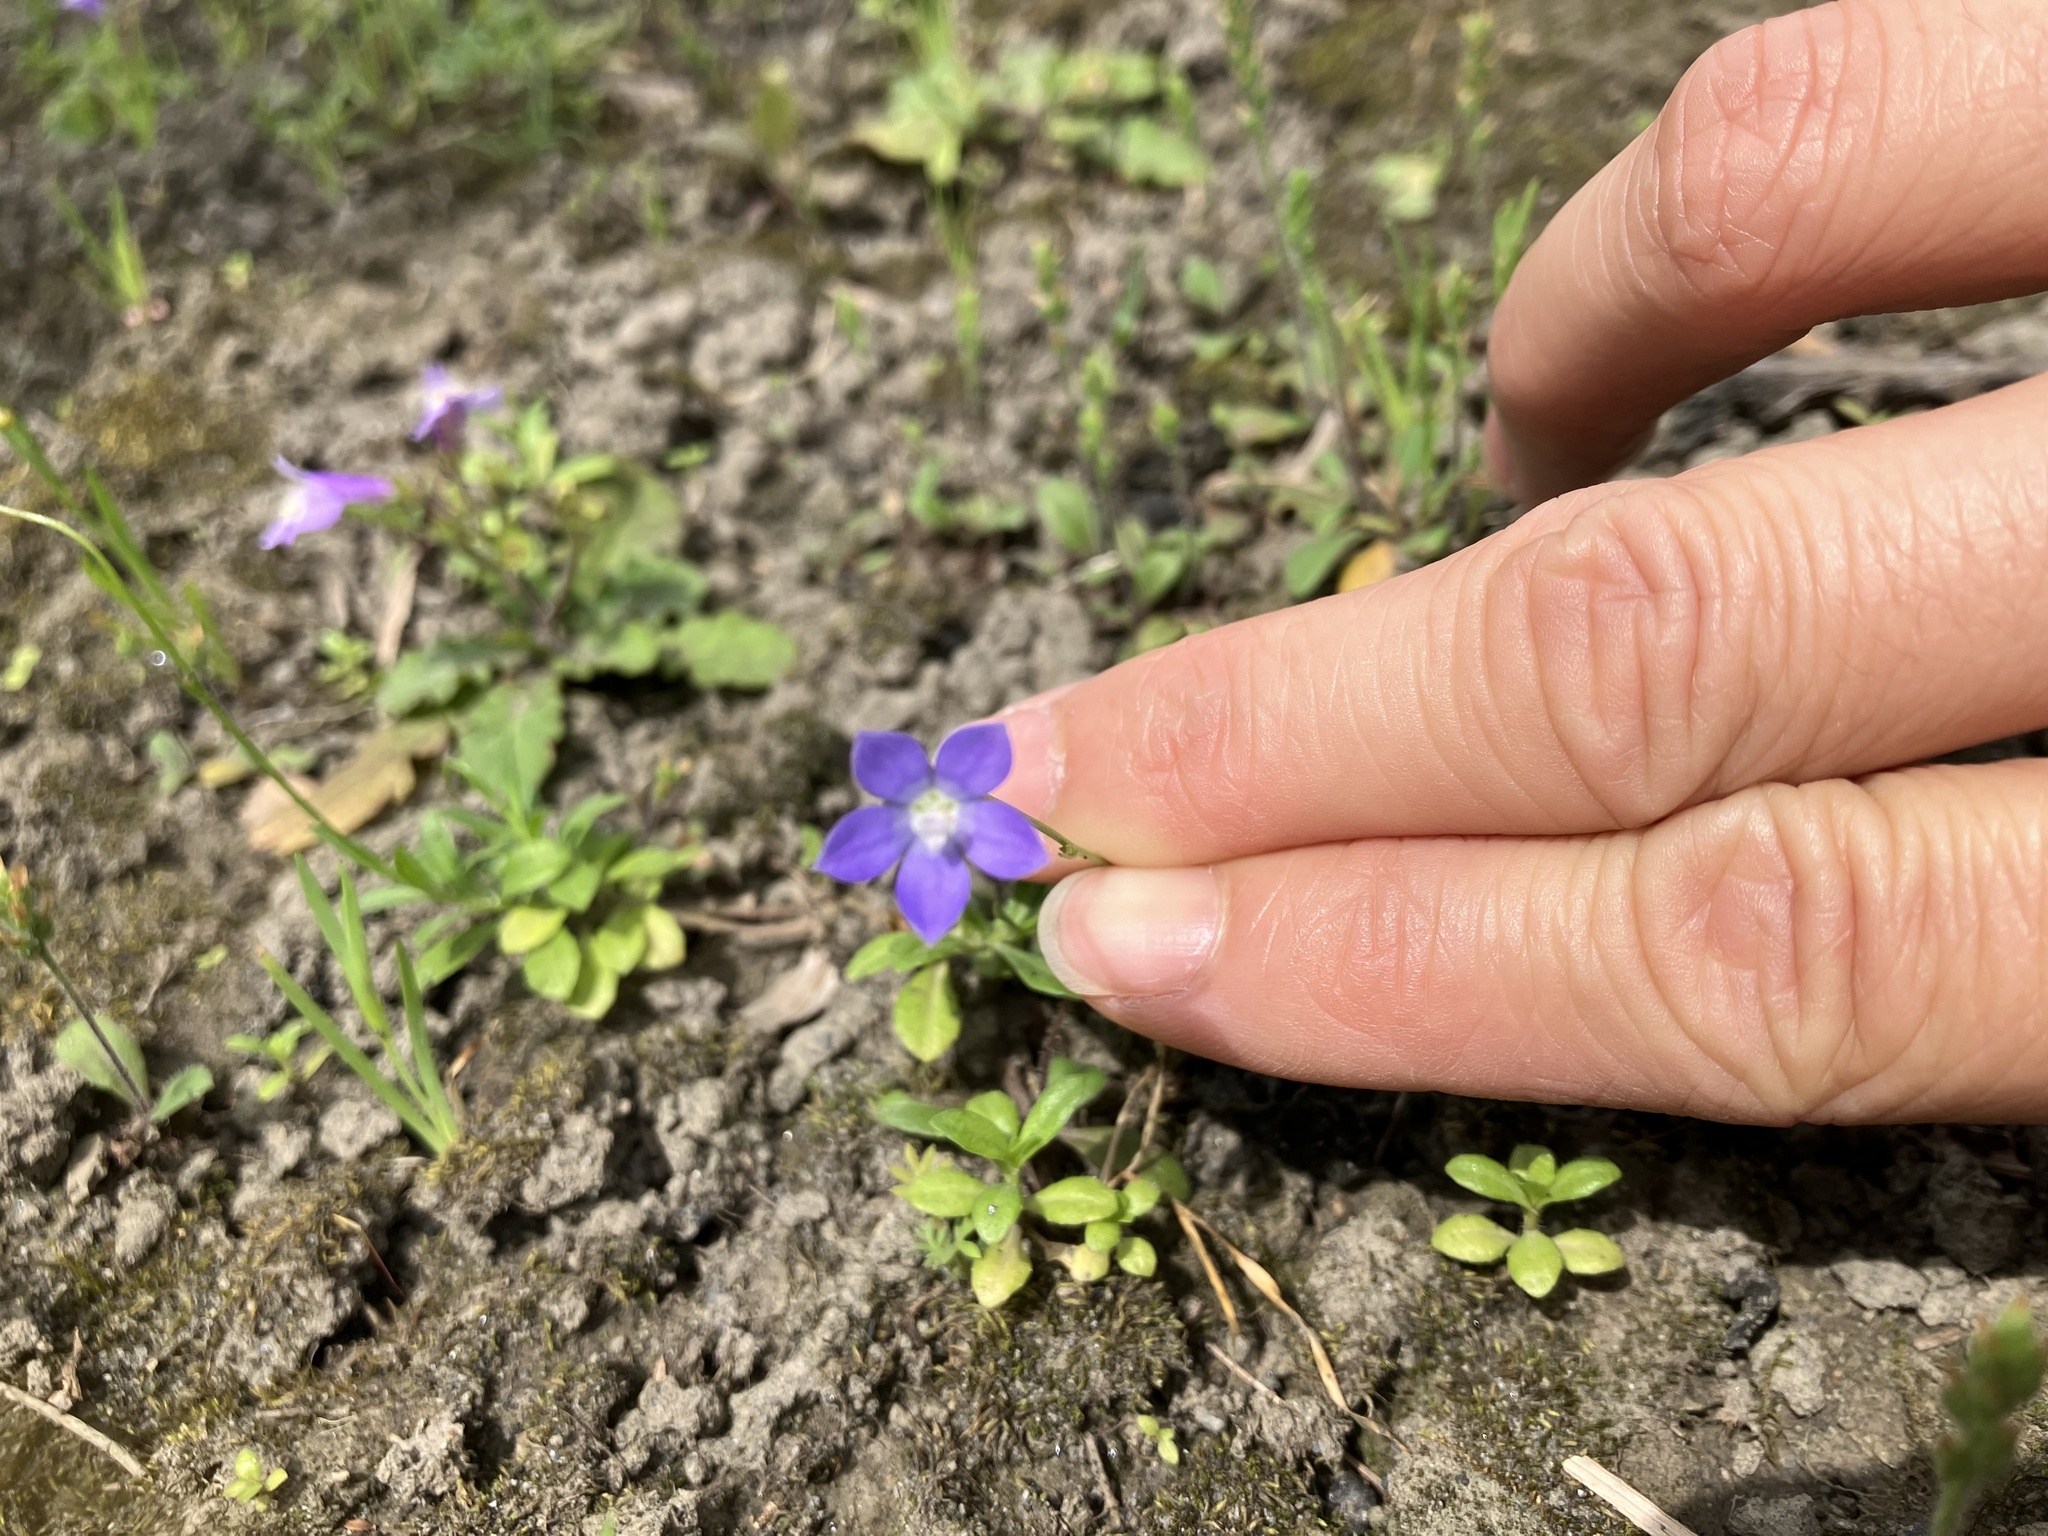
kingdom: Plantae
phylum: Tracheophyta
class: Magnoliopsida
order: Asterales
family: Campanulaceae
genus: Wahlenbergia
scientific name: Wahlenbergia marginata
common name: Southern rockbell
